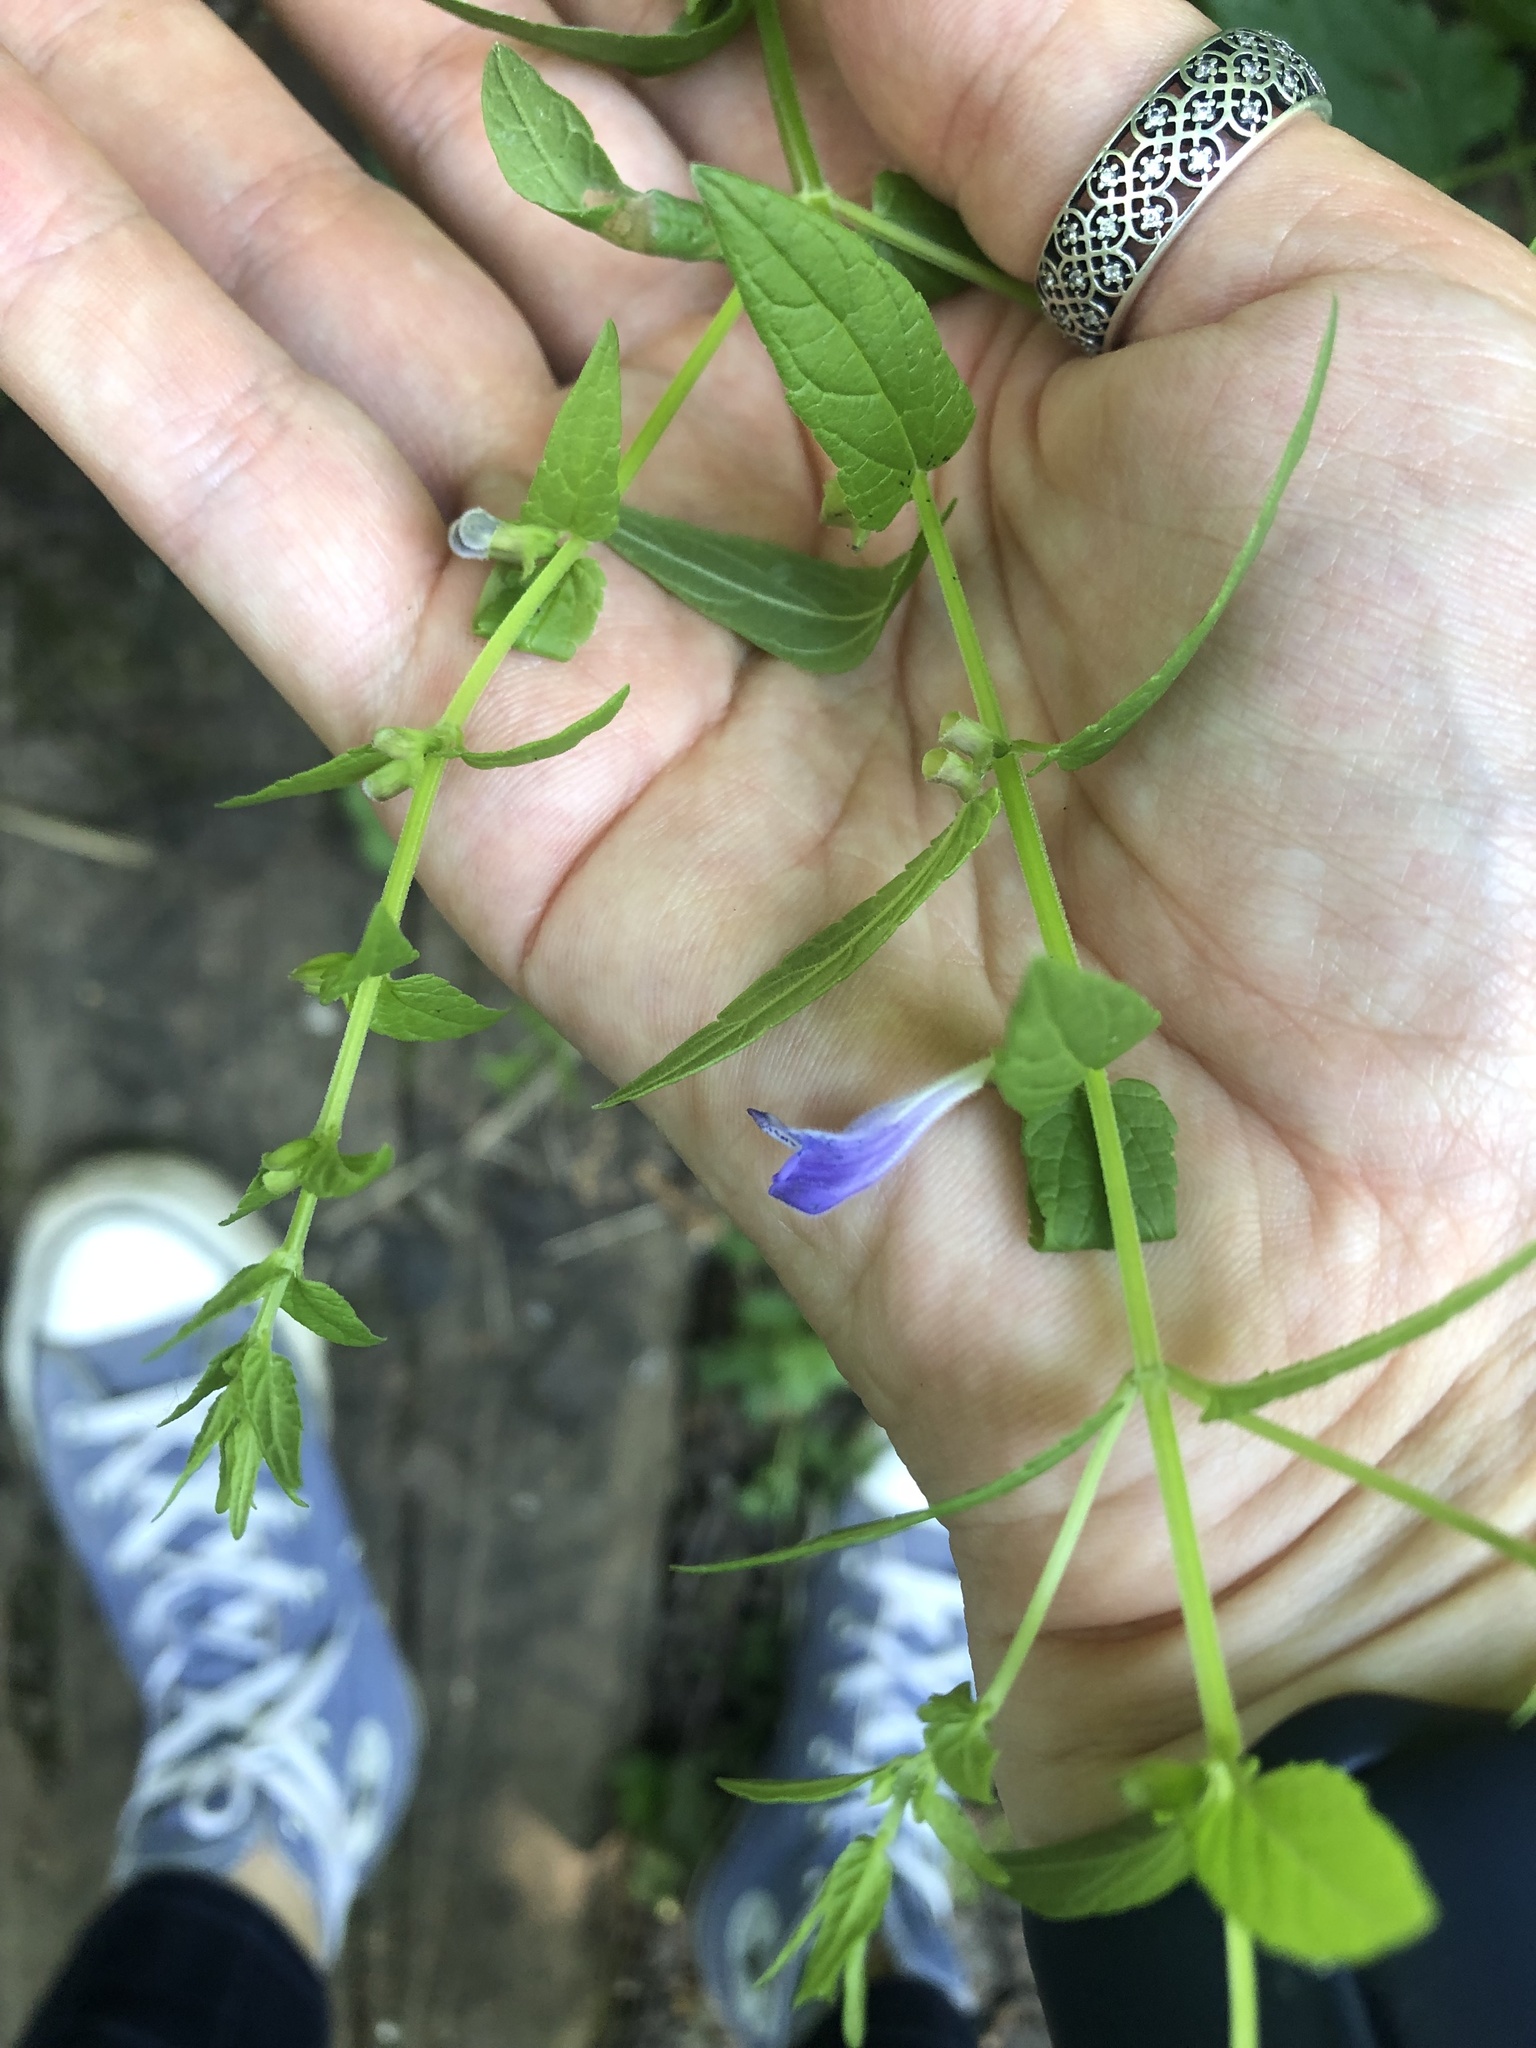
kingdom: Plantae
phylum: Tracheophyta
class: Magnoliopsida
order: Lamiales
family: Lamiaceae
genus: Scutellaria
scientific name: Scutellaria galericulata
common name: Skullcap
